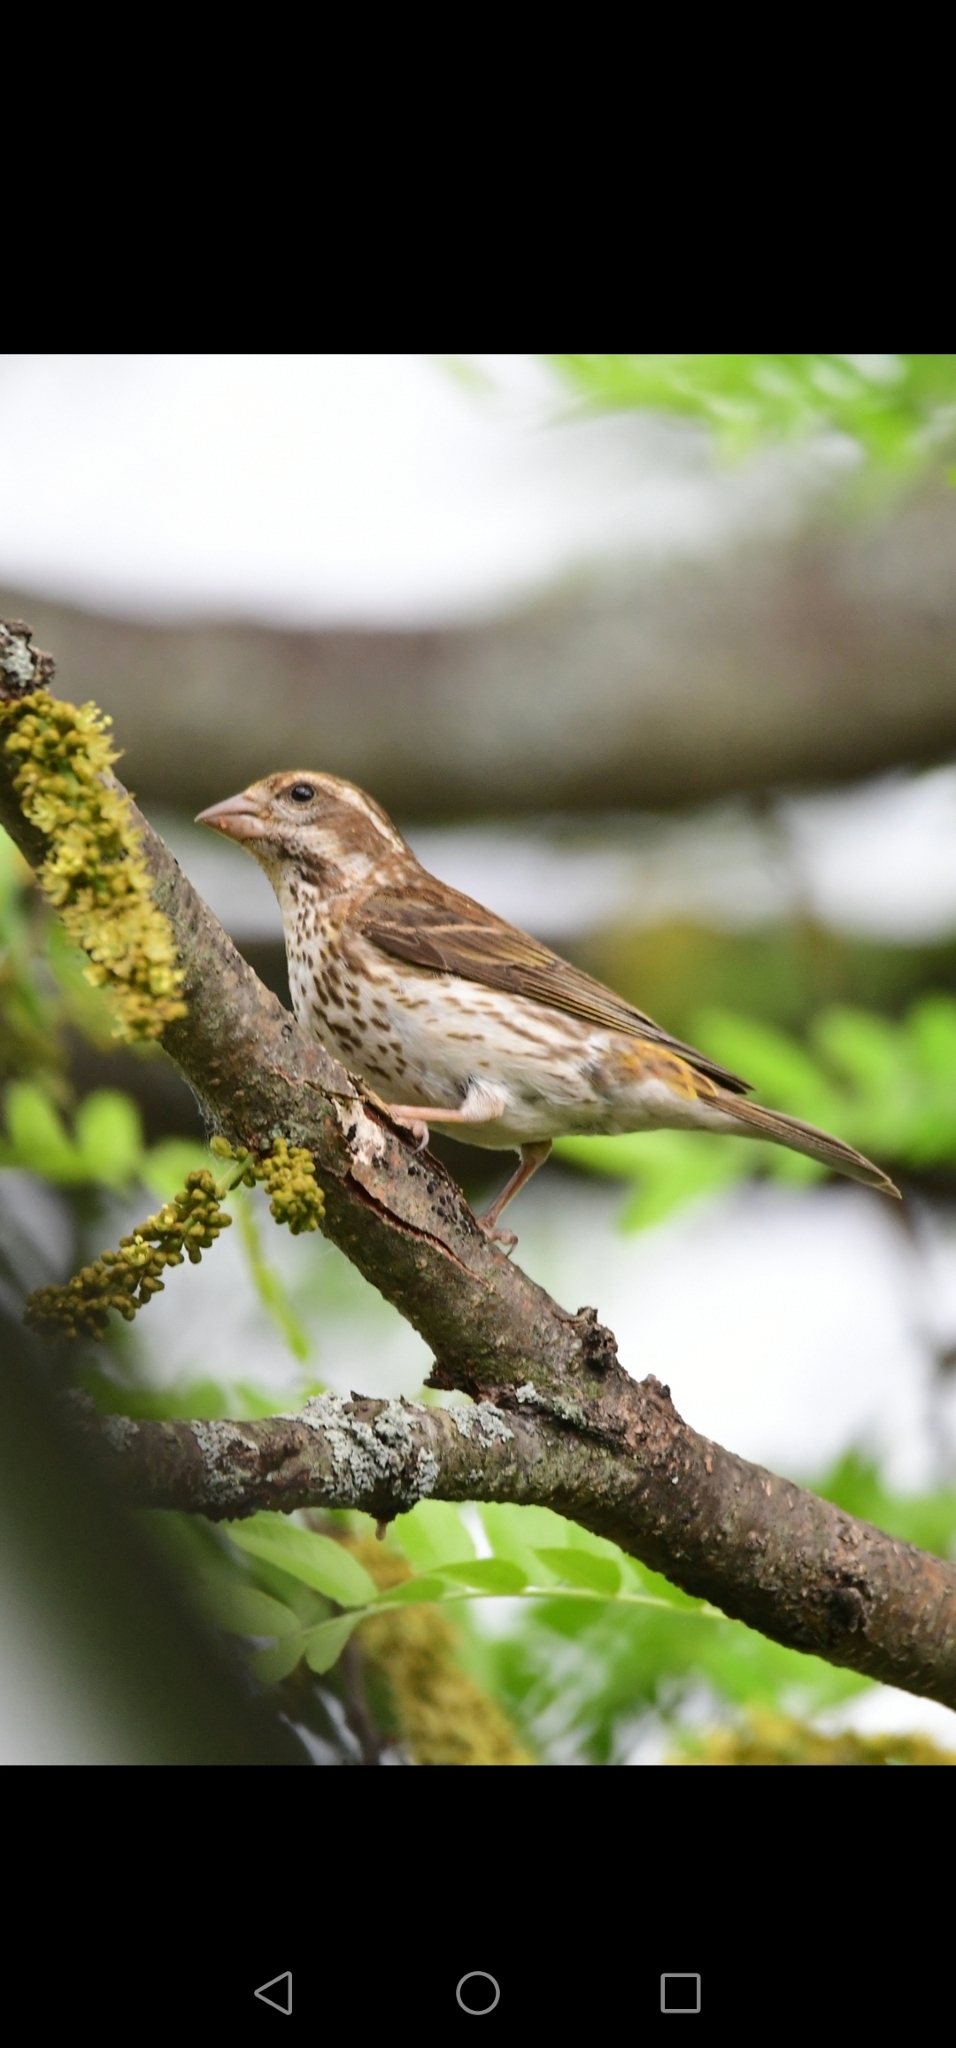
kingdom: Animalia
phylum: Chordata
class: Aves
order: Passeriformes
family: Fringillidae
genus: Haemorhous
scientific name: Haemorhous purpureus
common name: Purple finch
